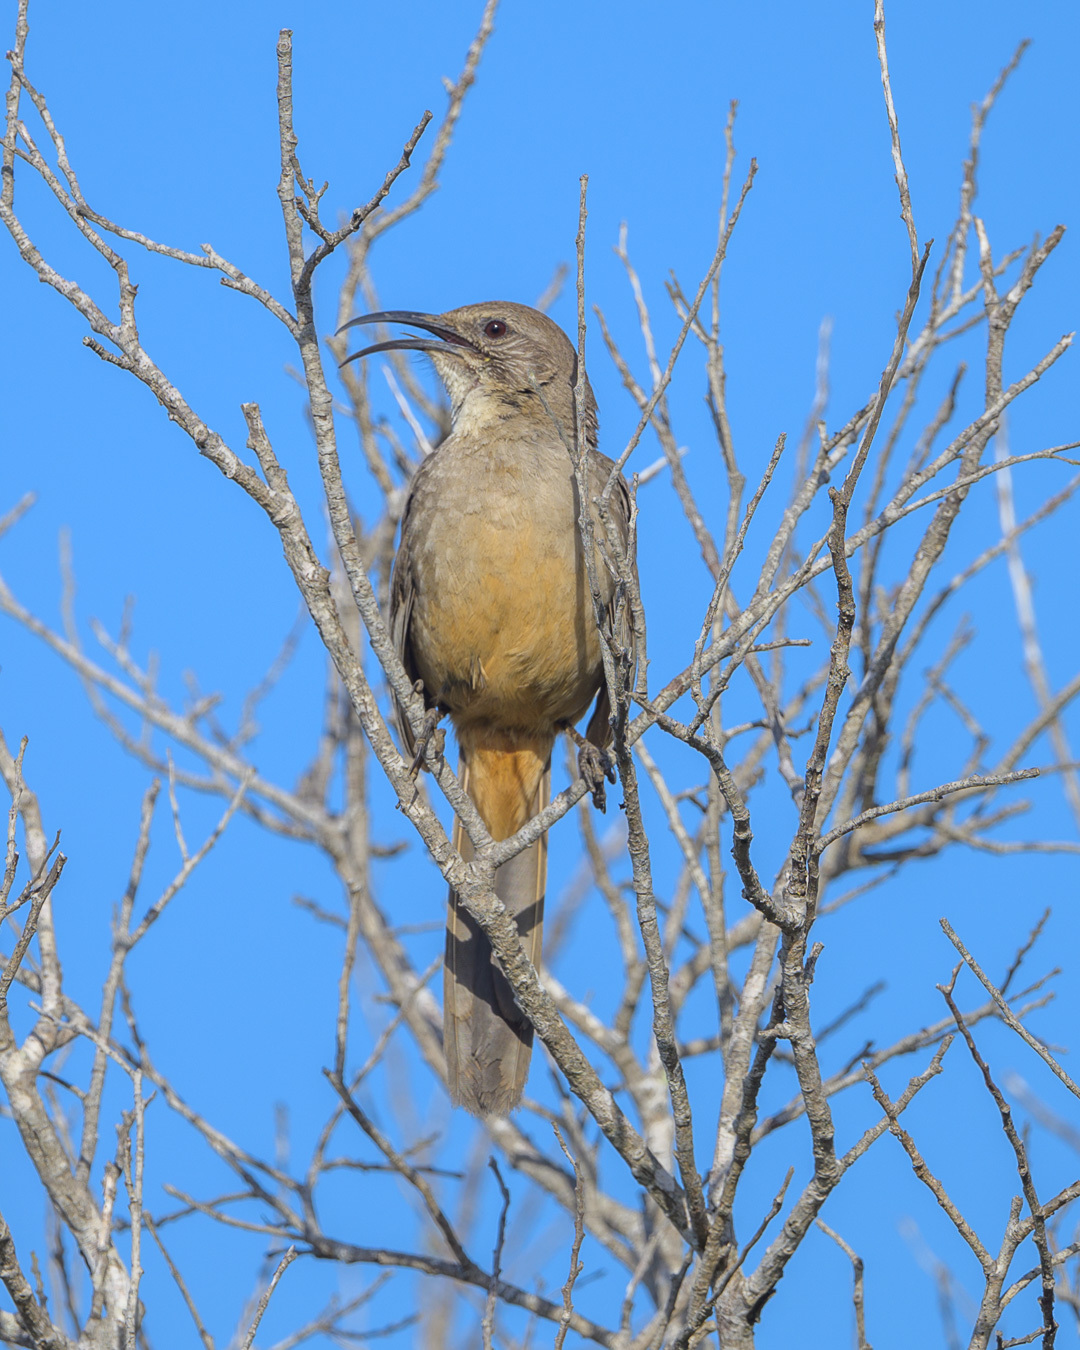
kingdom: Animalia
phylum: Chordata
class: Aves
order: Passeriformes
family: Mimidae
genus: Toxostoma
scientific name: Toxostoma redivivum
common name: California thrasher
